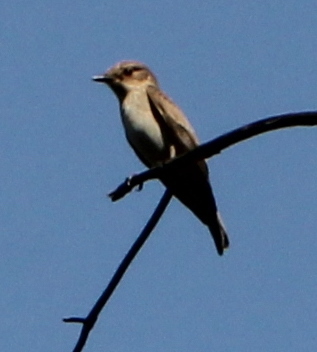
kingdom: Animalia
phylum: Chordata
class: Aves
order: Passeriformes
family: Muscicapidae
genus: Muscicapa
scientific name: Muscicapa striata
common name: Spotted flycatcher
